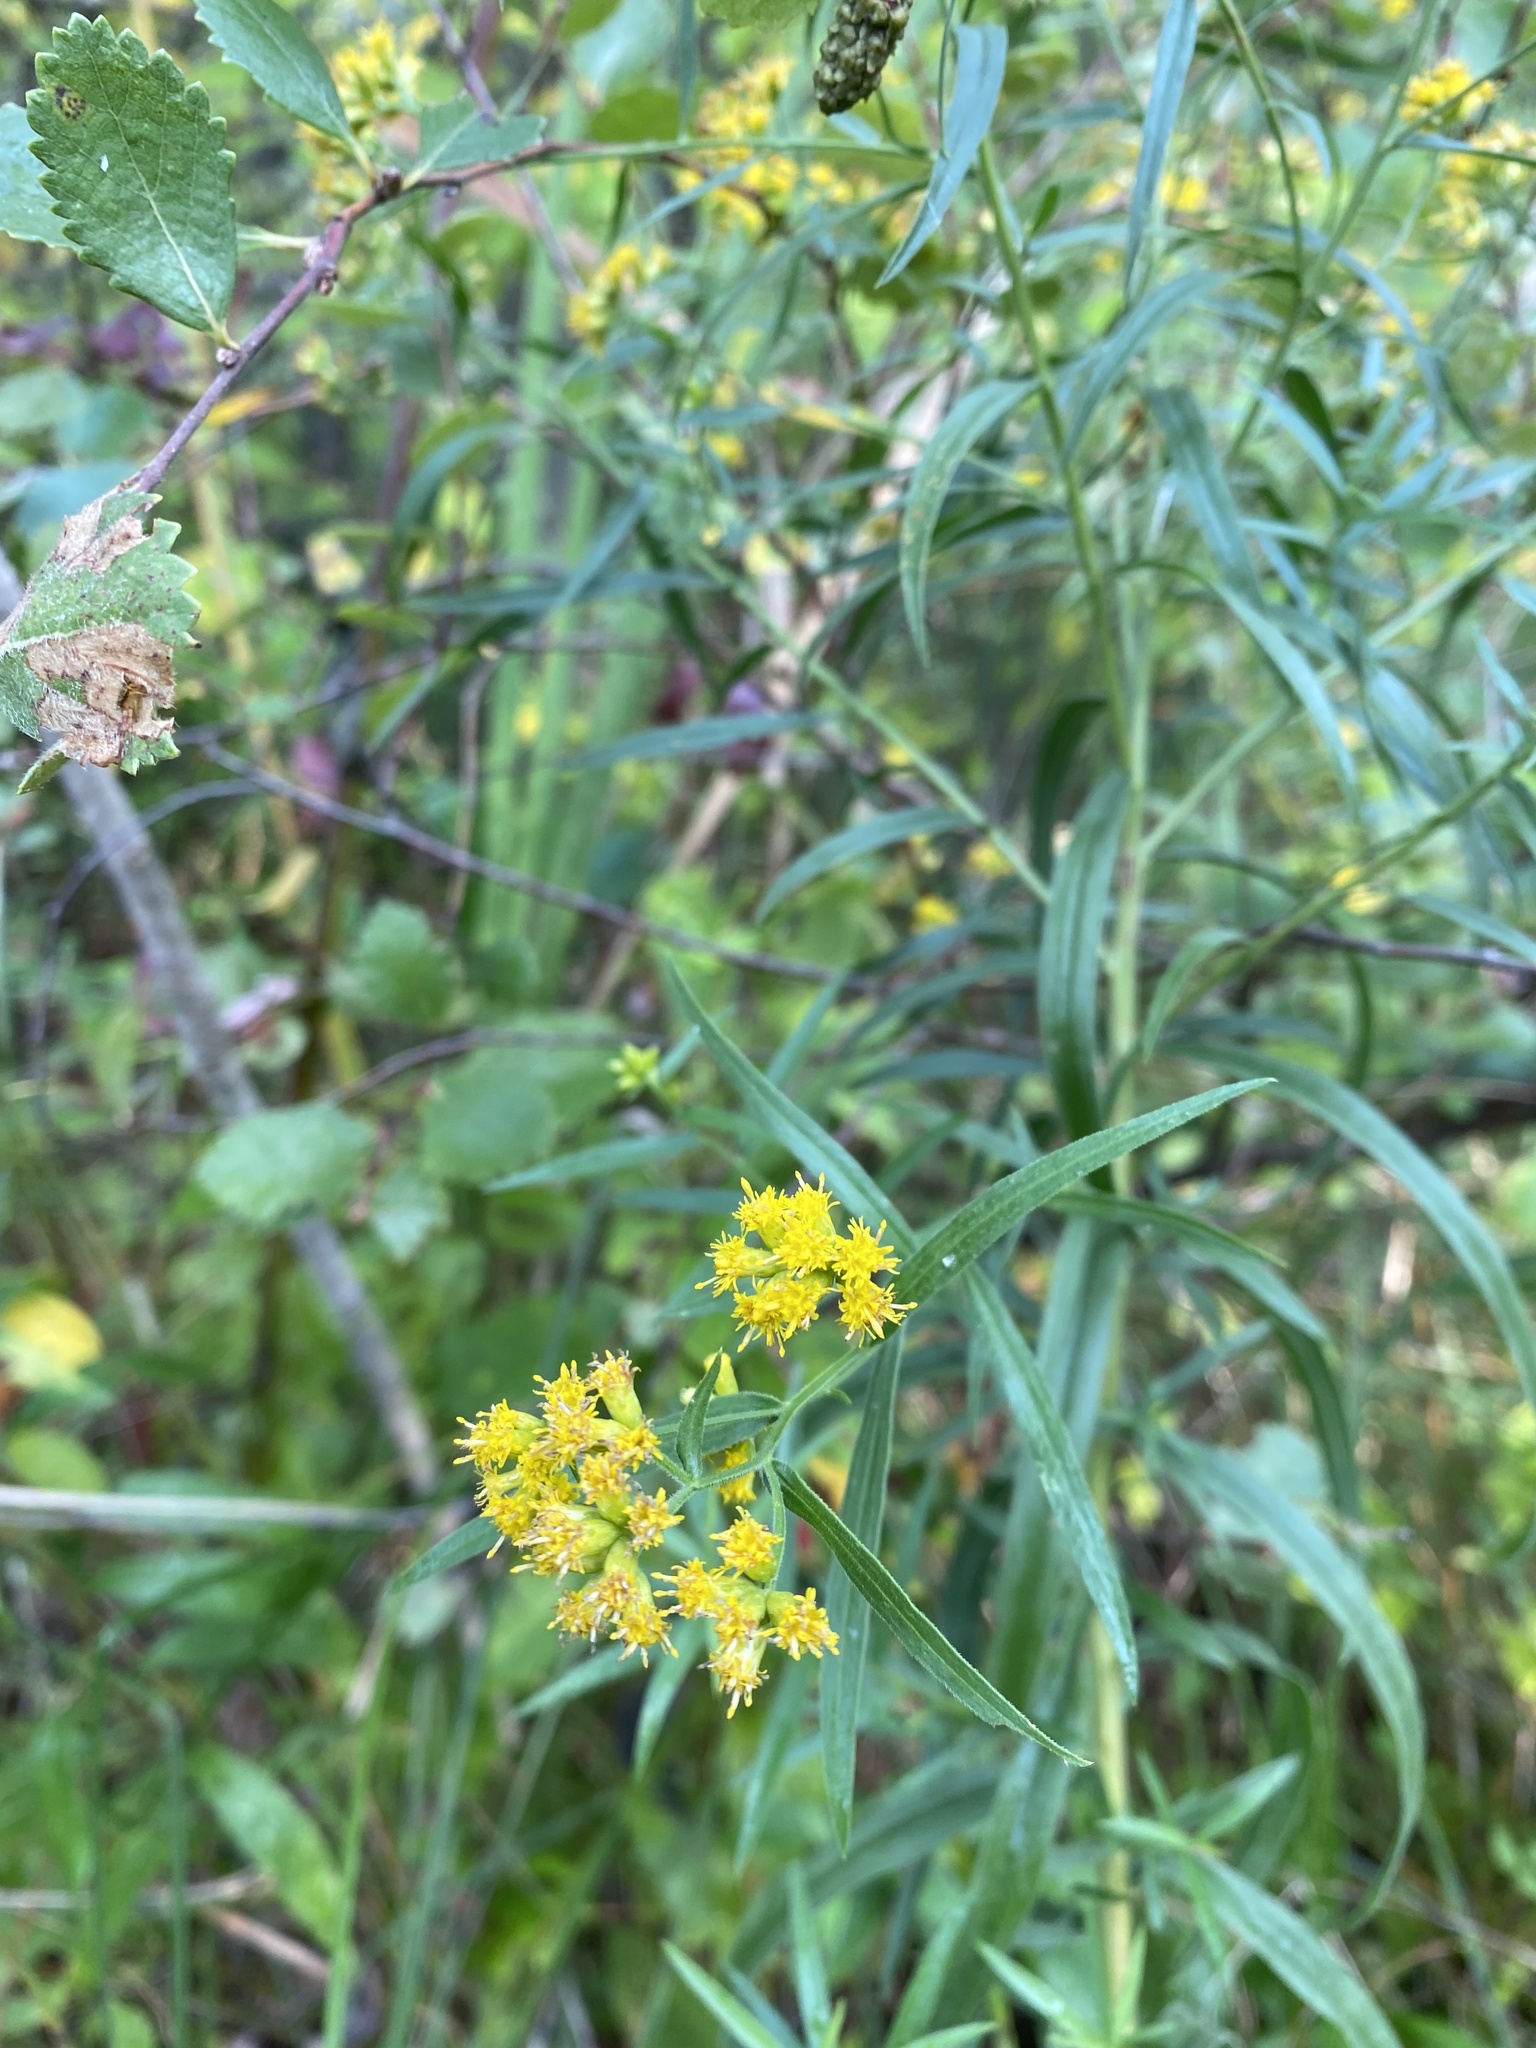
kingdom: Plantae
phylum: Tracheophyta
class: Magnoliopsida
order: Asterales
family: Asteraceae
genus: Euthamia
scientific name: Euthamia graminifolia
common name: Common goldentop
